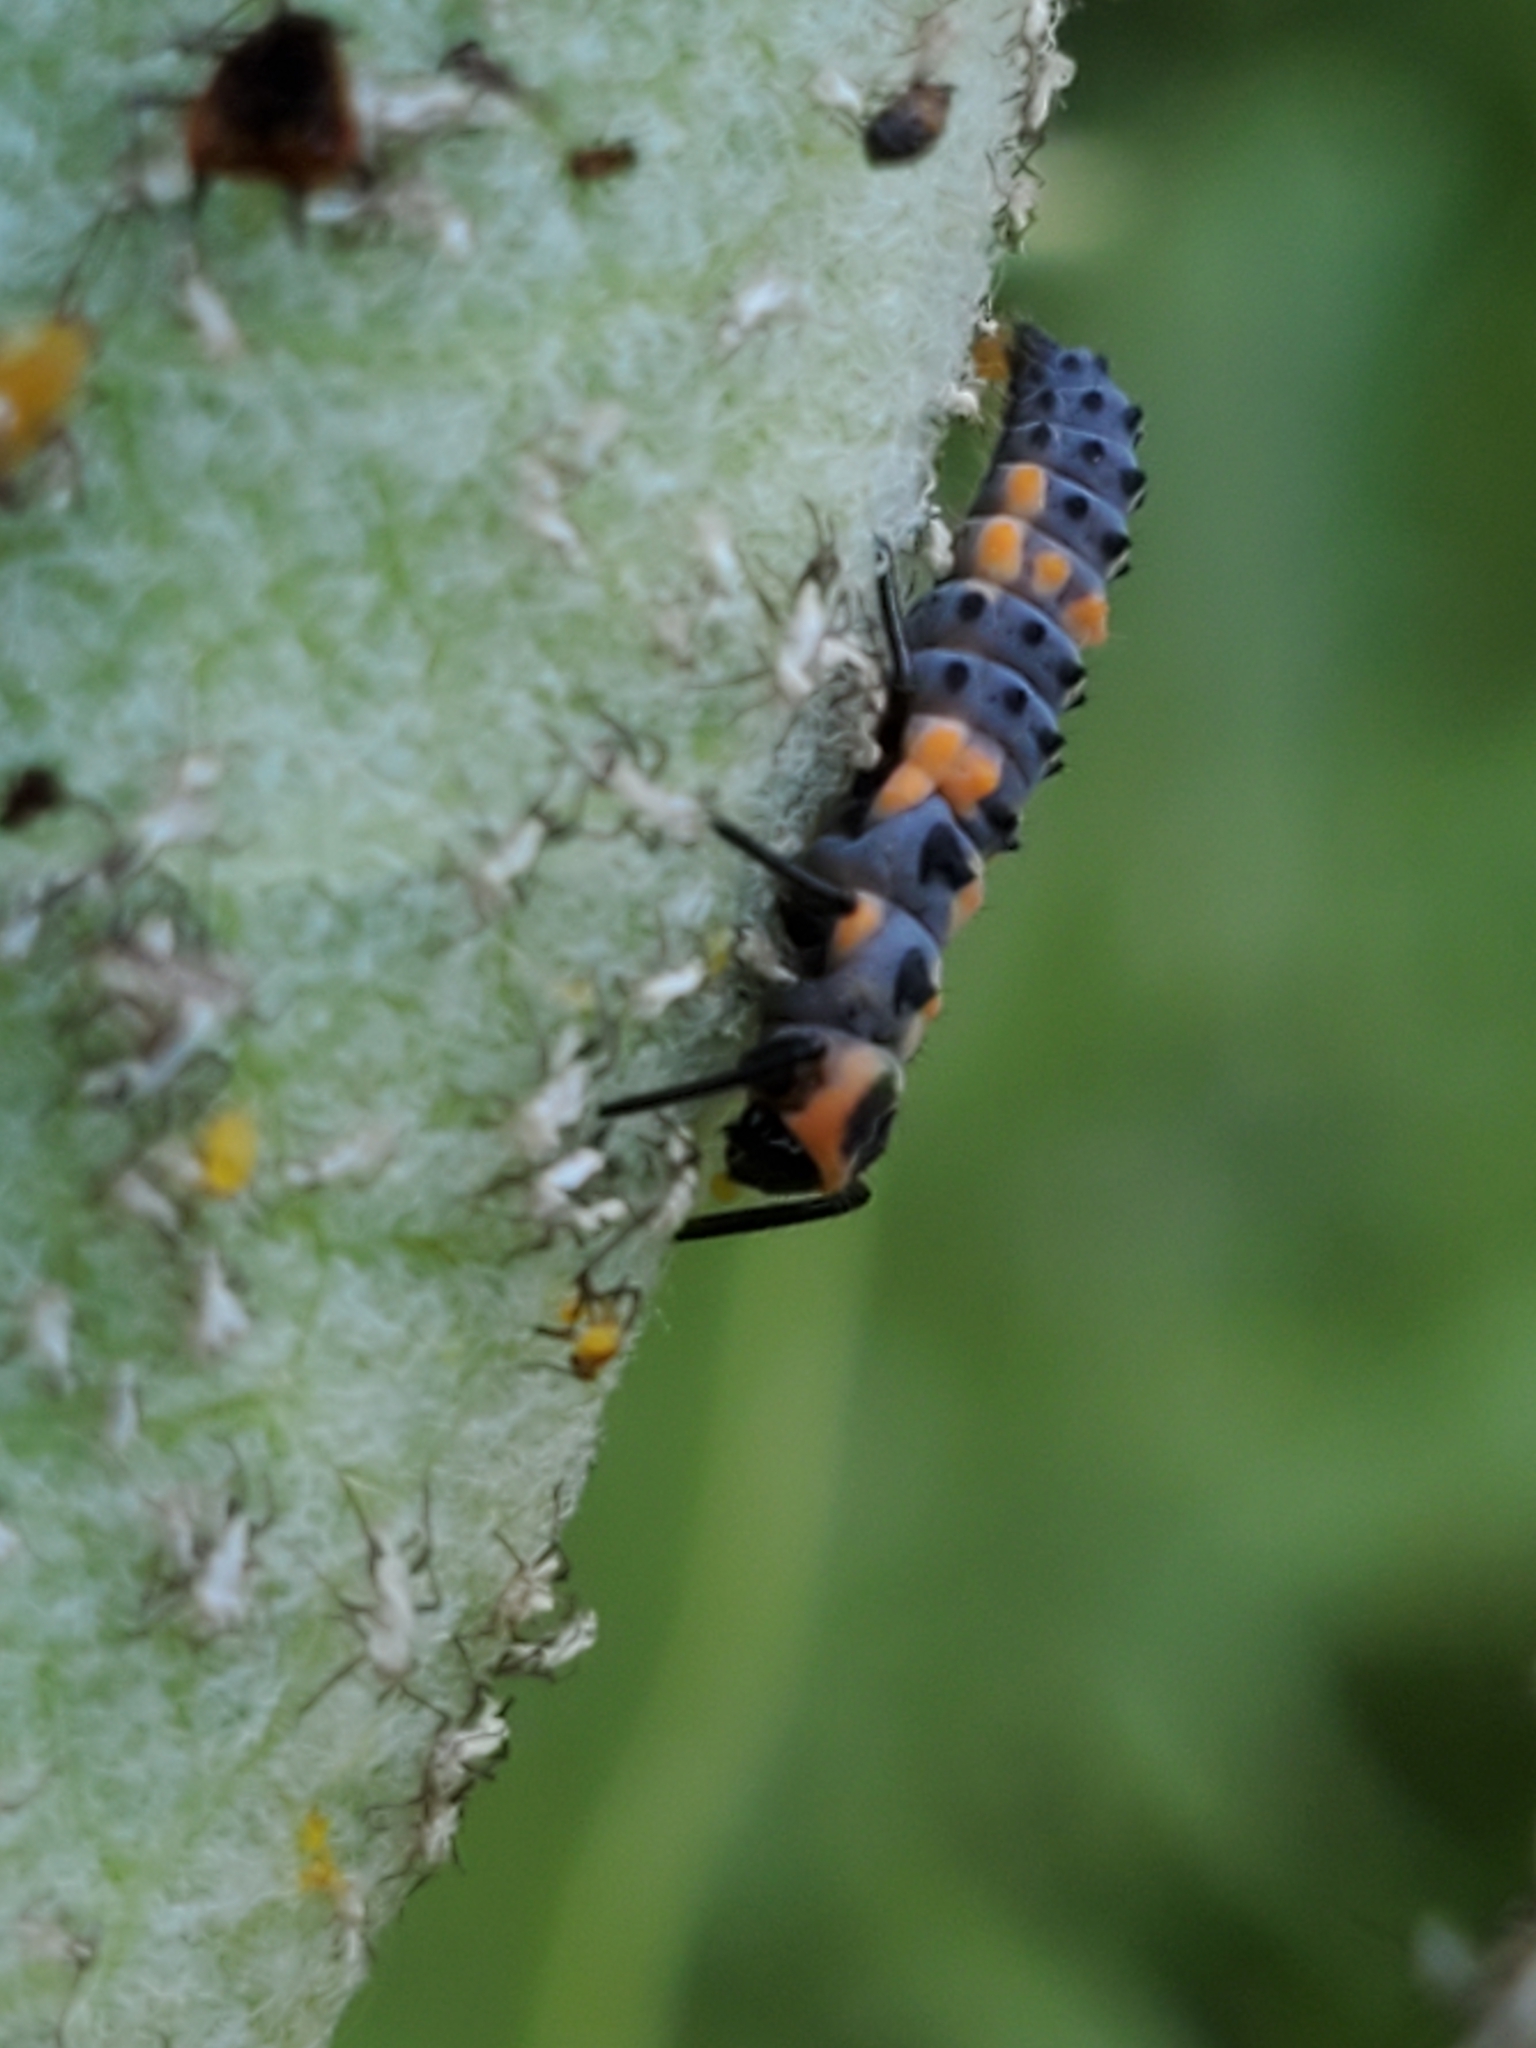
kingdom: Animalia
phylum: Arthropoda
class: Insecta
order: Coleoptera
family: Coccinellidae
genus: Cycloneda
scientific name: Cycloneda sanguinea
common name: Ladybird beetle
